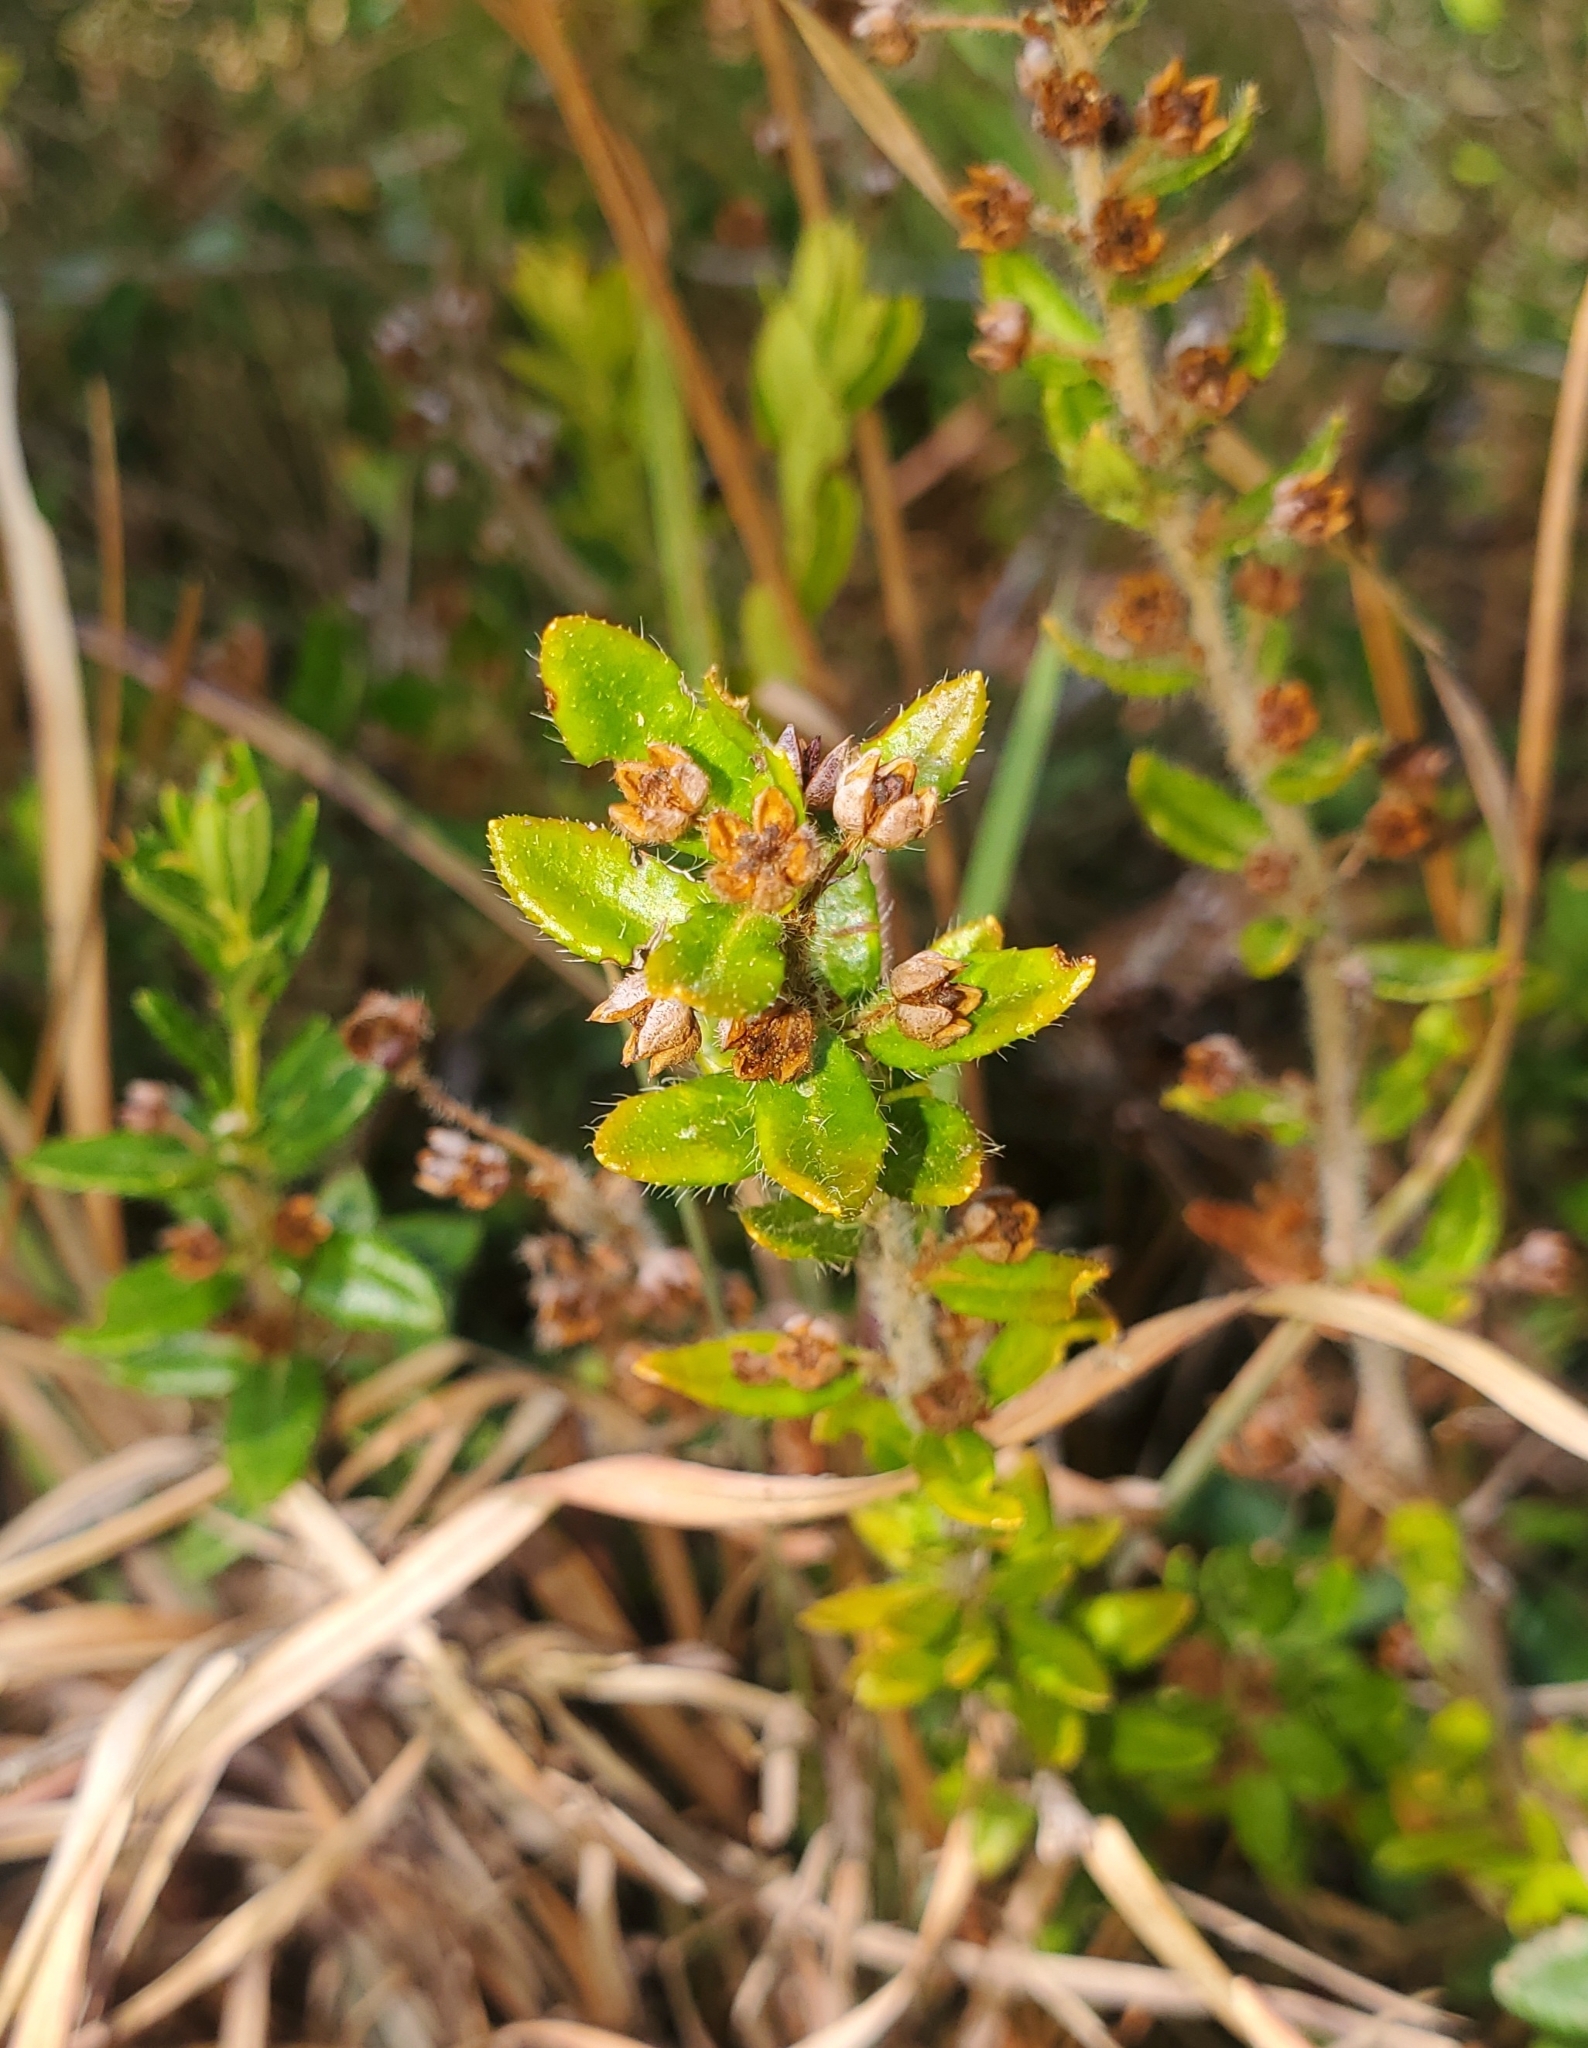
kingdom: Plantae
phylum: Tracheophyta
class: Magnoliopsida
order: Ericales
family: Ericaceae
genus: Kalmia
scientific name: Kalmia hirsuta
